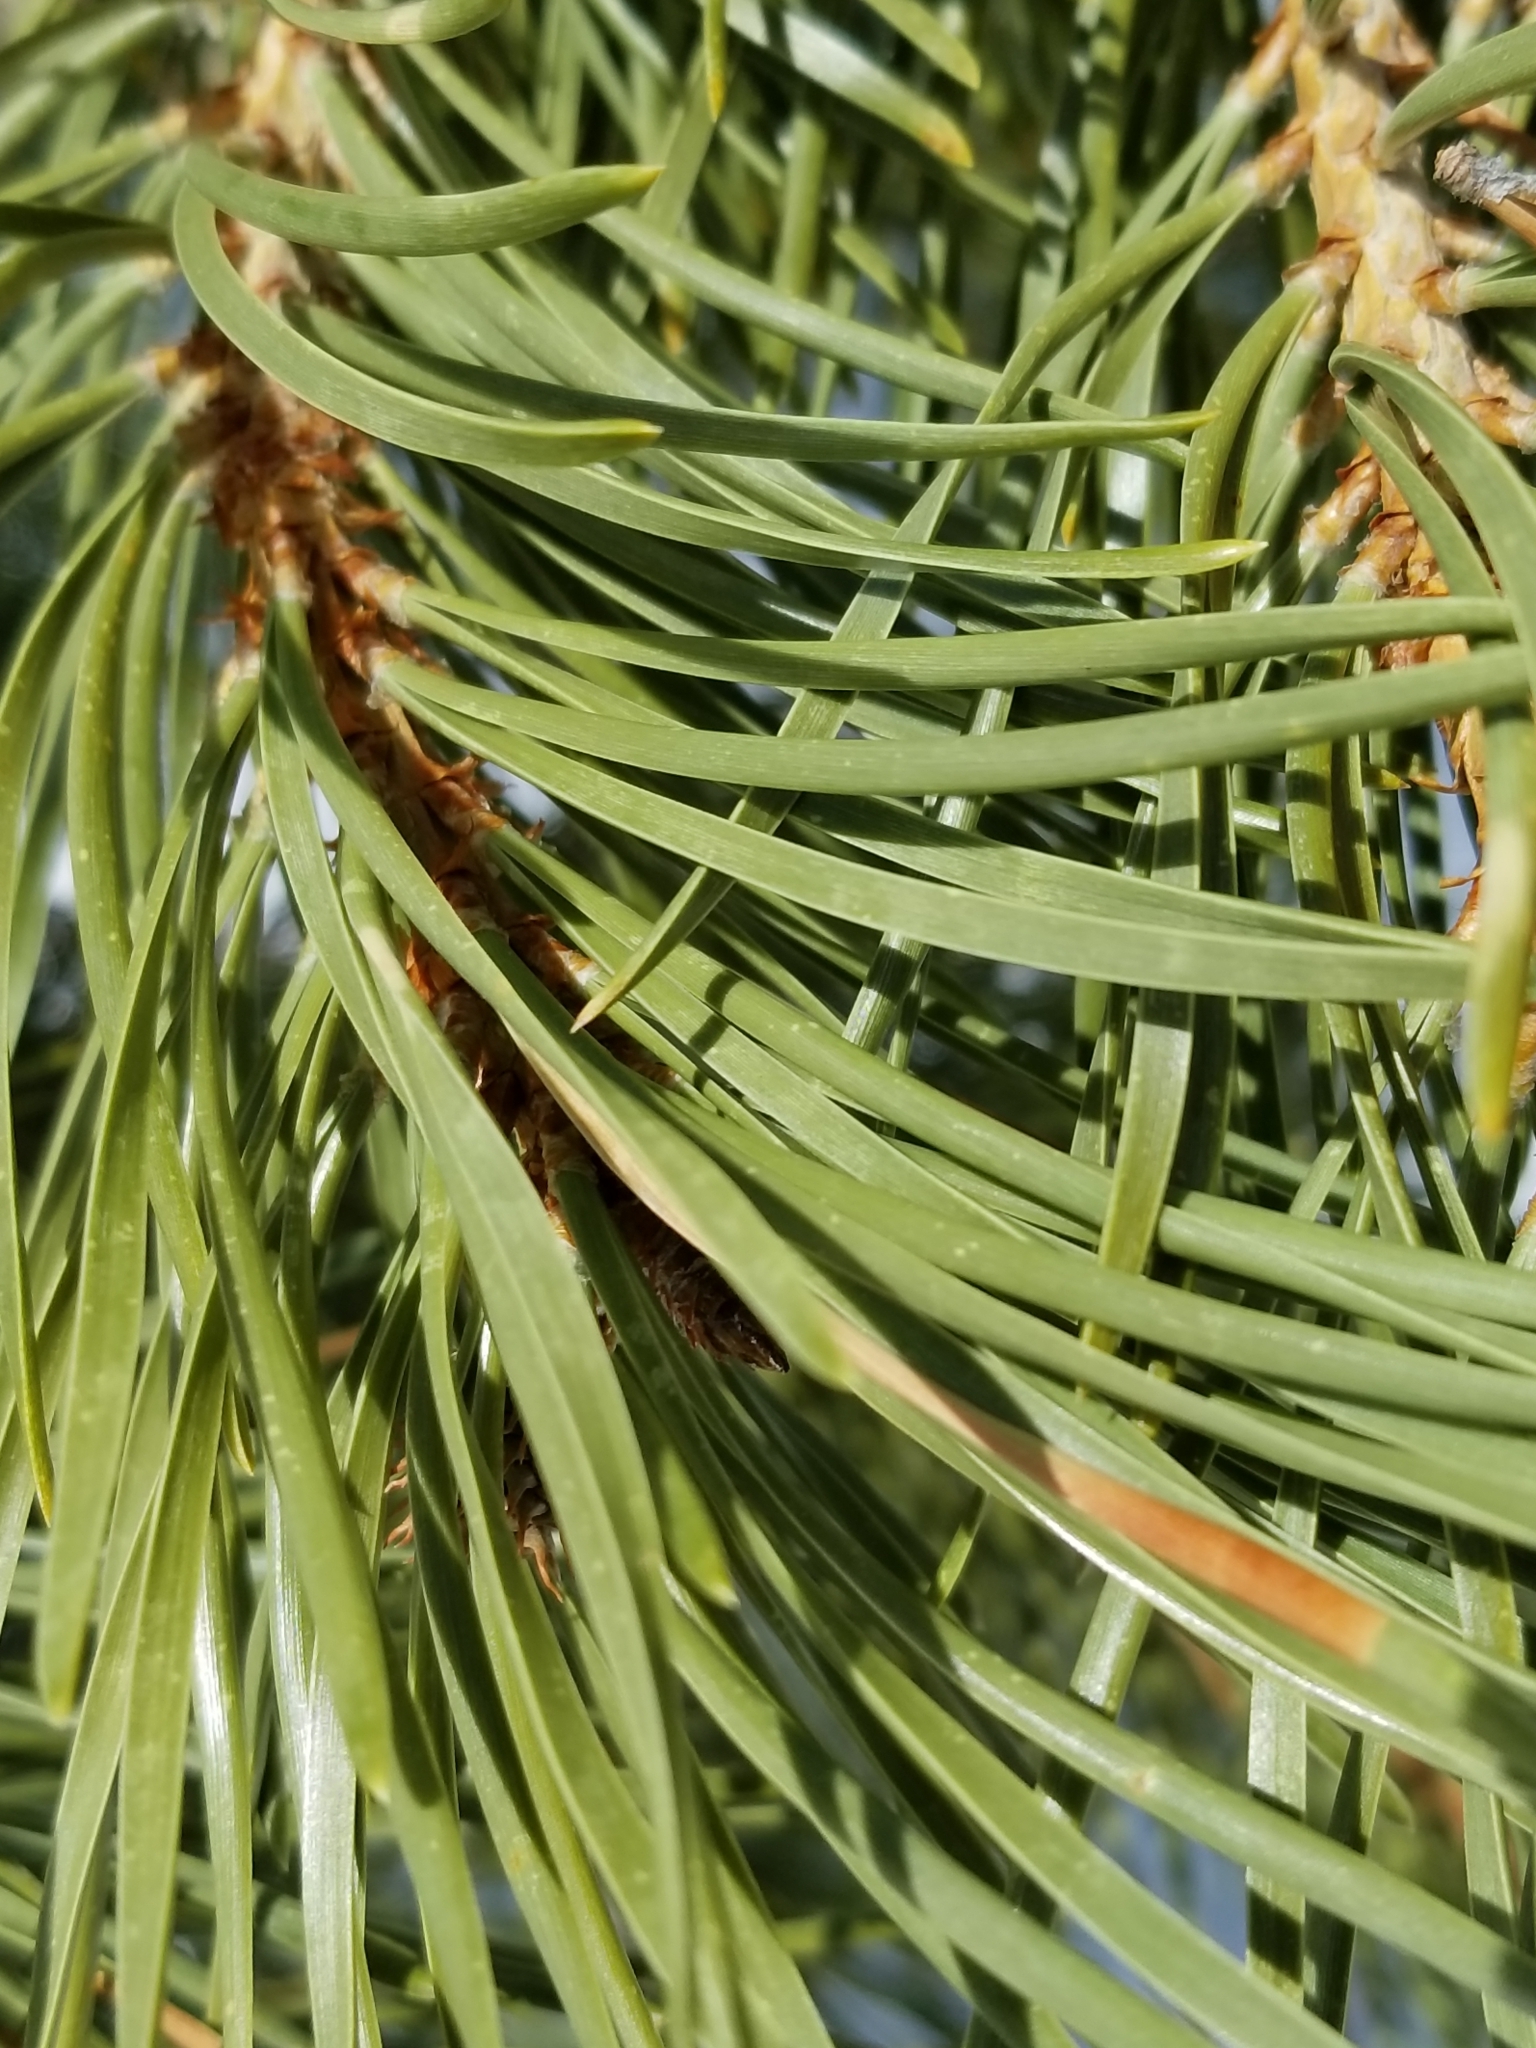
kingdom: Plantae
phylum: Tracheophyta
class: Pinopsida
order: Pinales
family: Pinaceae
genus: Pinus
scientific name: Pinus contorta
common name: Lodgepole pine
